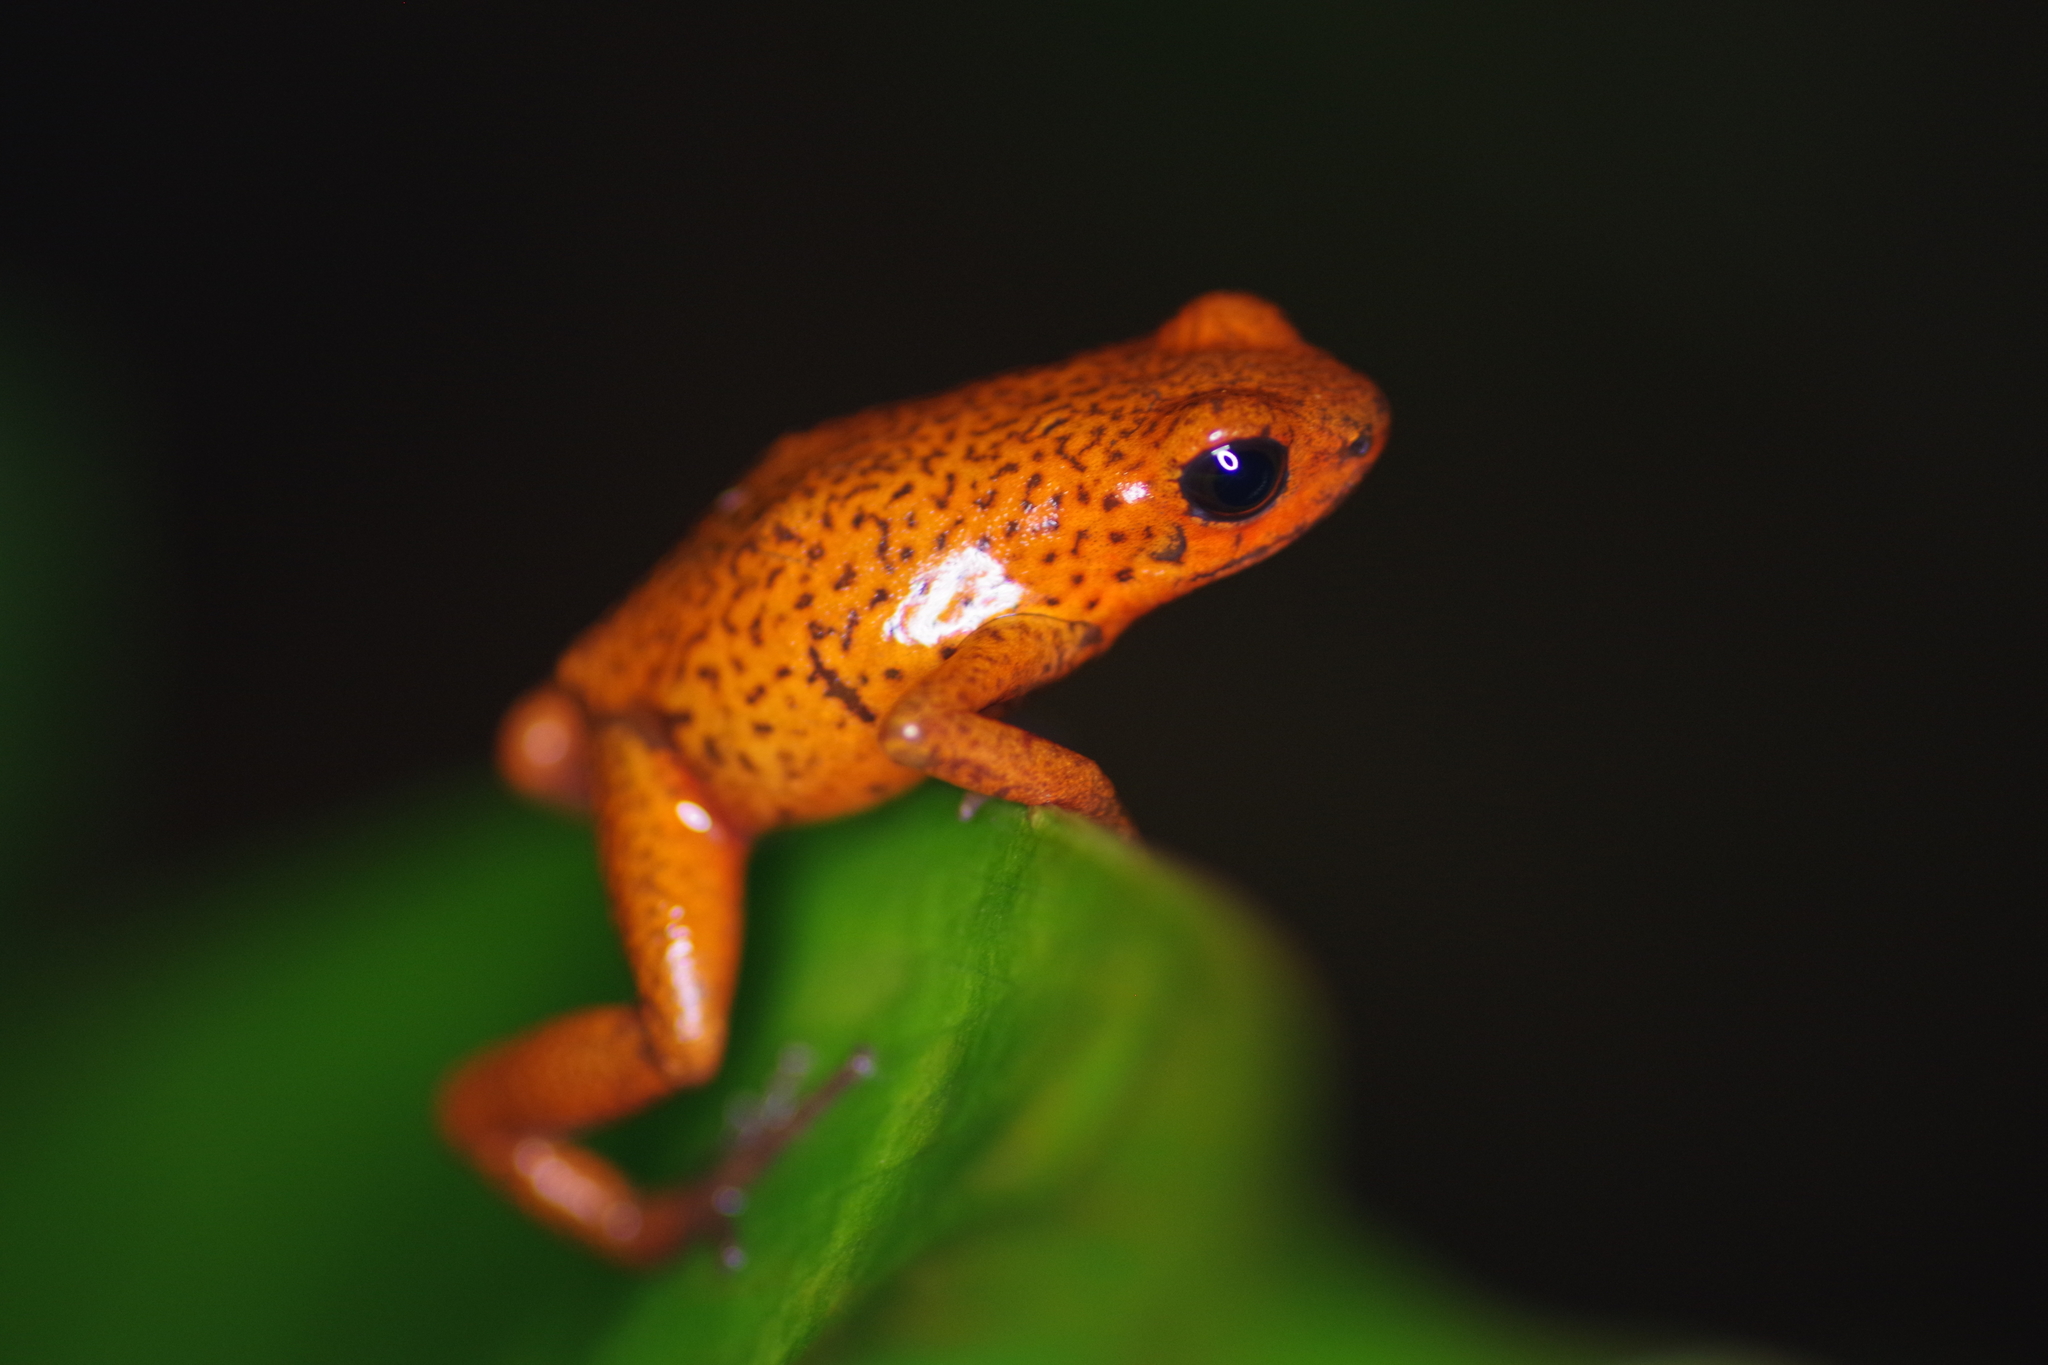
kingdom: Animalia
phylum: Chordata
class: Amphibia
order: Anura
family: Dendrobatidae
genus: Oophaga
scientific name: Oophaga pumilio
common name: Flaming poison frog
